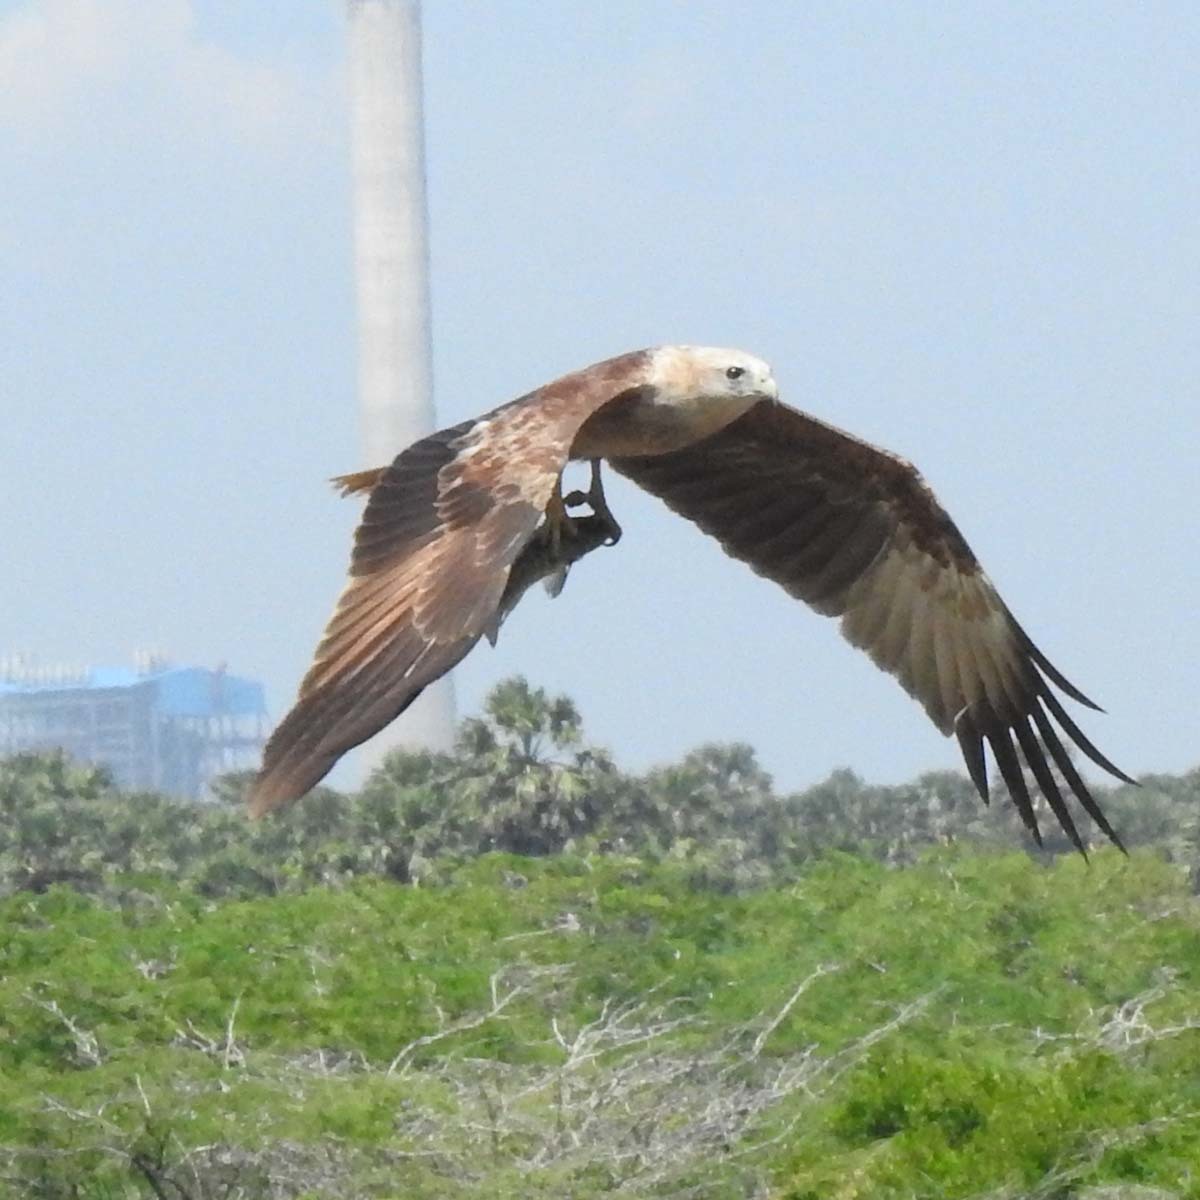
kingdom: Animalia
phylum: Chordata
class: Aves
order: Accipitriformes
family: Accipitridae
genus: Haliastur
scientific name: Haliastur indus
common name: Brahminy kite
